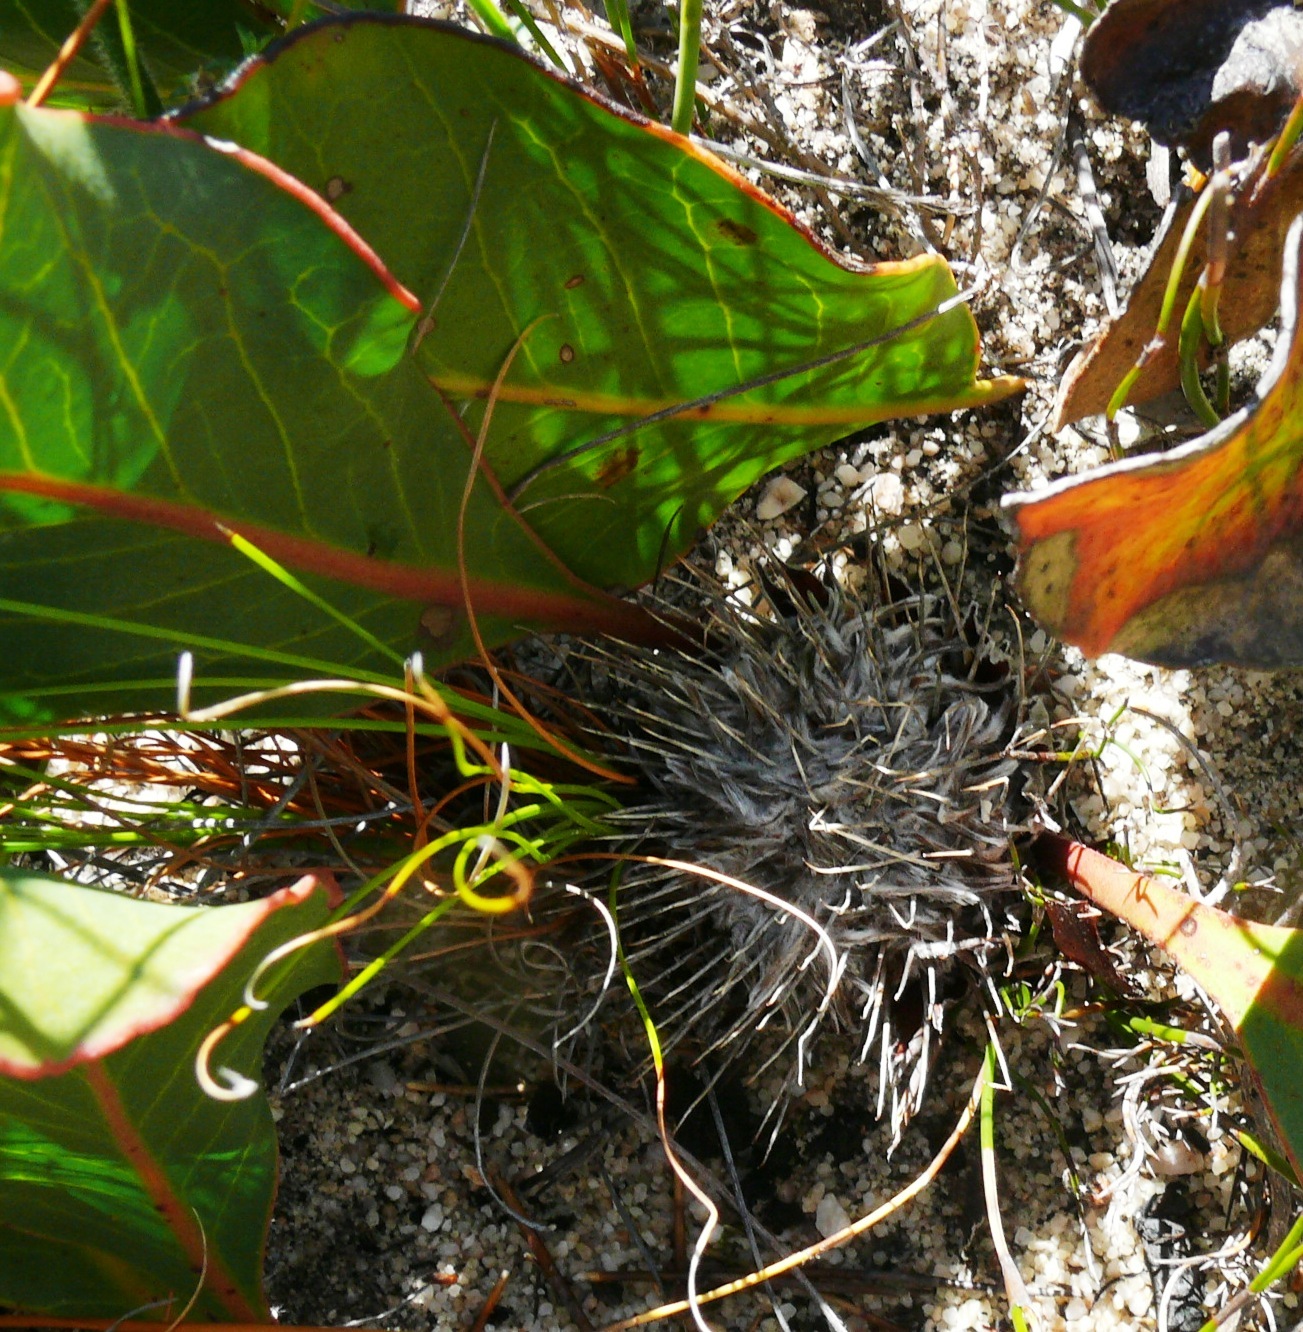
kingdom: Plantae
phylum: Tracheophyta
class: Magnoliopsida
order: Proteales
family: Proteaceae
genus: Protea
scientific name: Protea scolopendriifolia
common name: Harts-tongue-fern sugarbush
